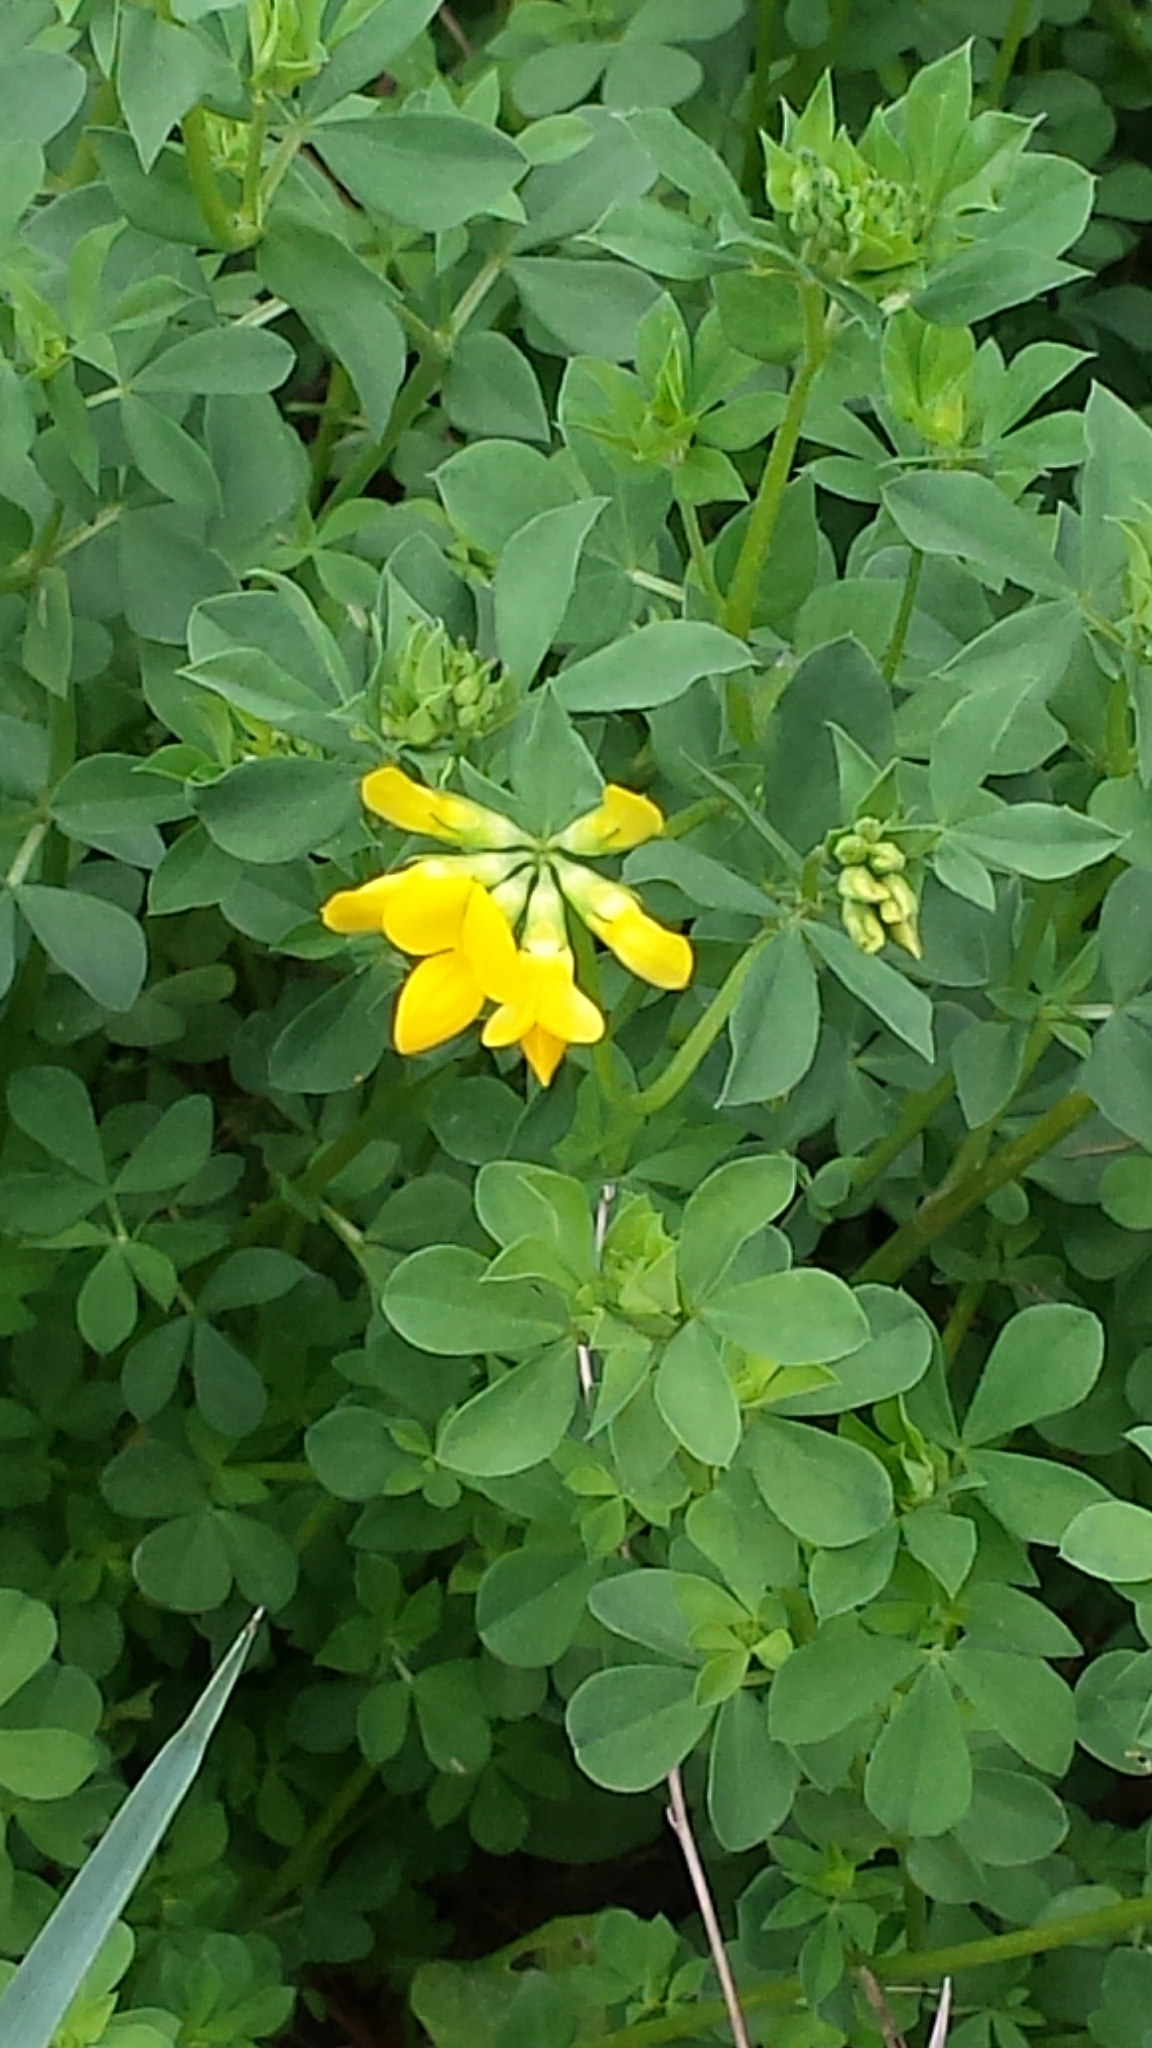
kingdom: Plantae
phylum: Tracheophyta
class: Magnoliopsida
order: Fabales
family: Fabaceae
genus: Lotus
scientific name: Lotus corniculatus
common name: Common bird's-foot-trefoil
